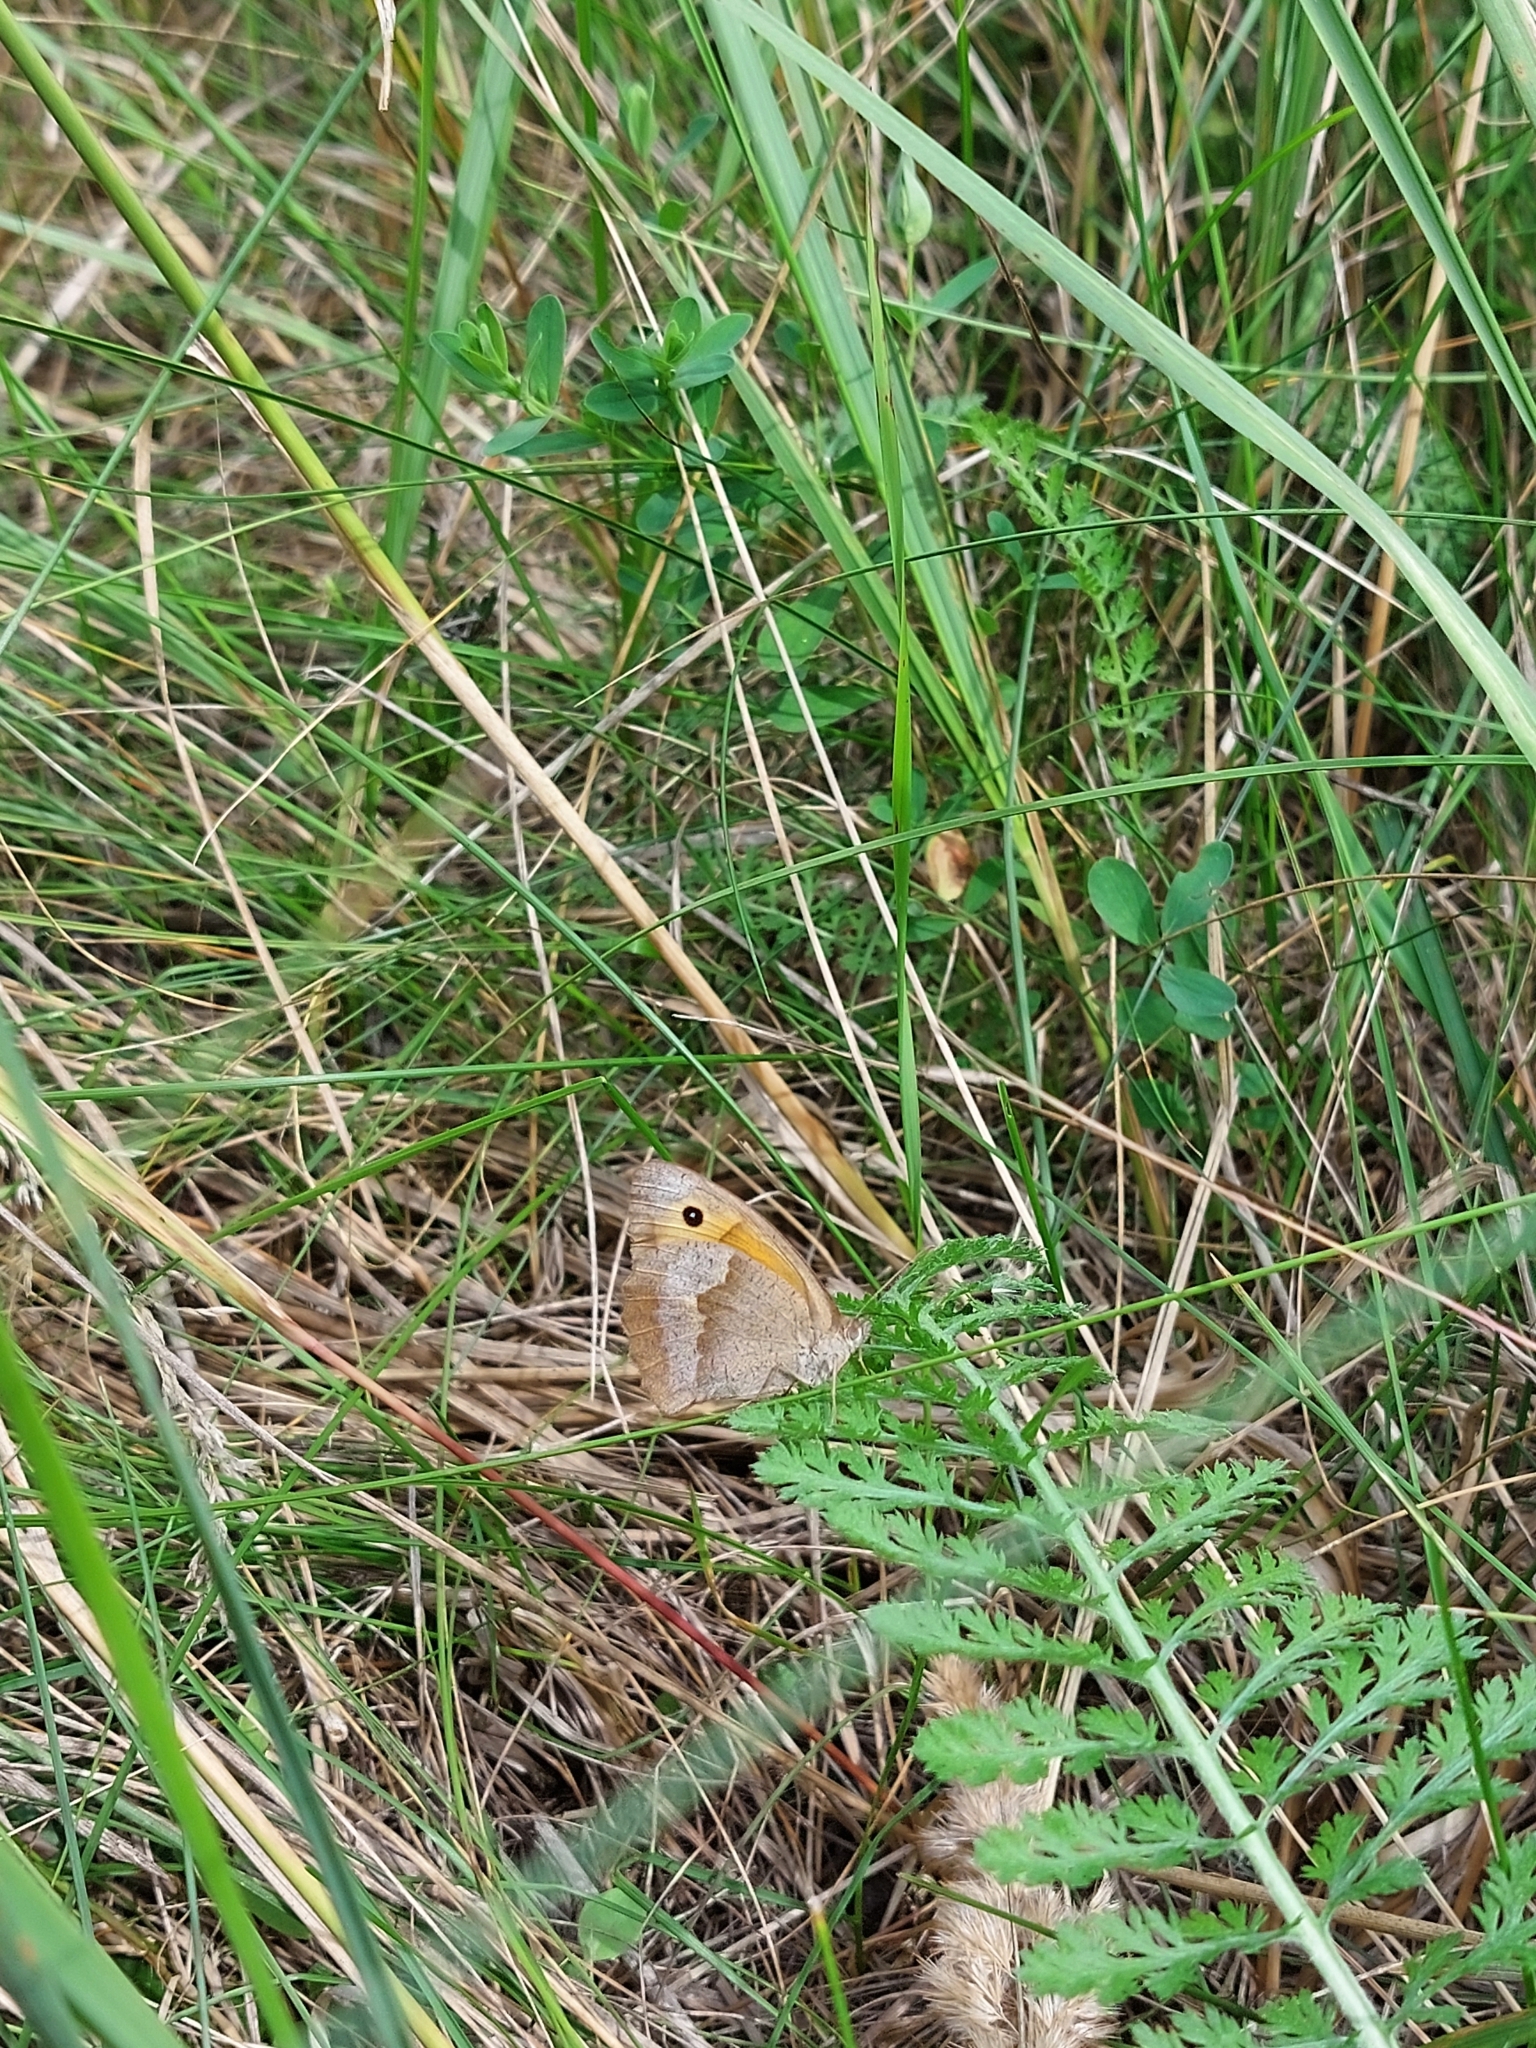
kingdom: Animalia
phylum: Arthropoda
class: Insecta
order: Lepidoptera
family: Nymphalidae
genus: Maniola
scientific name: Maniola jurtina
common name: Meadow brown
